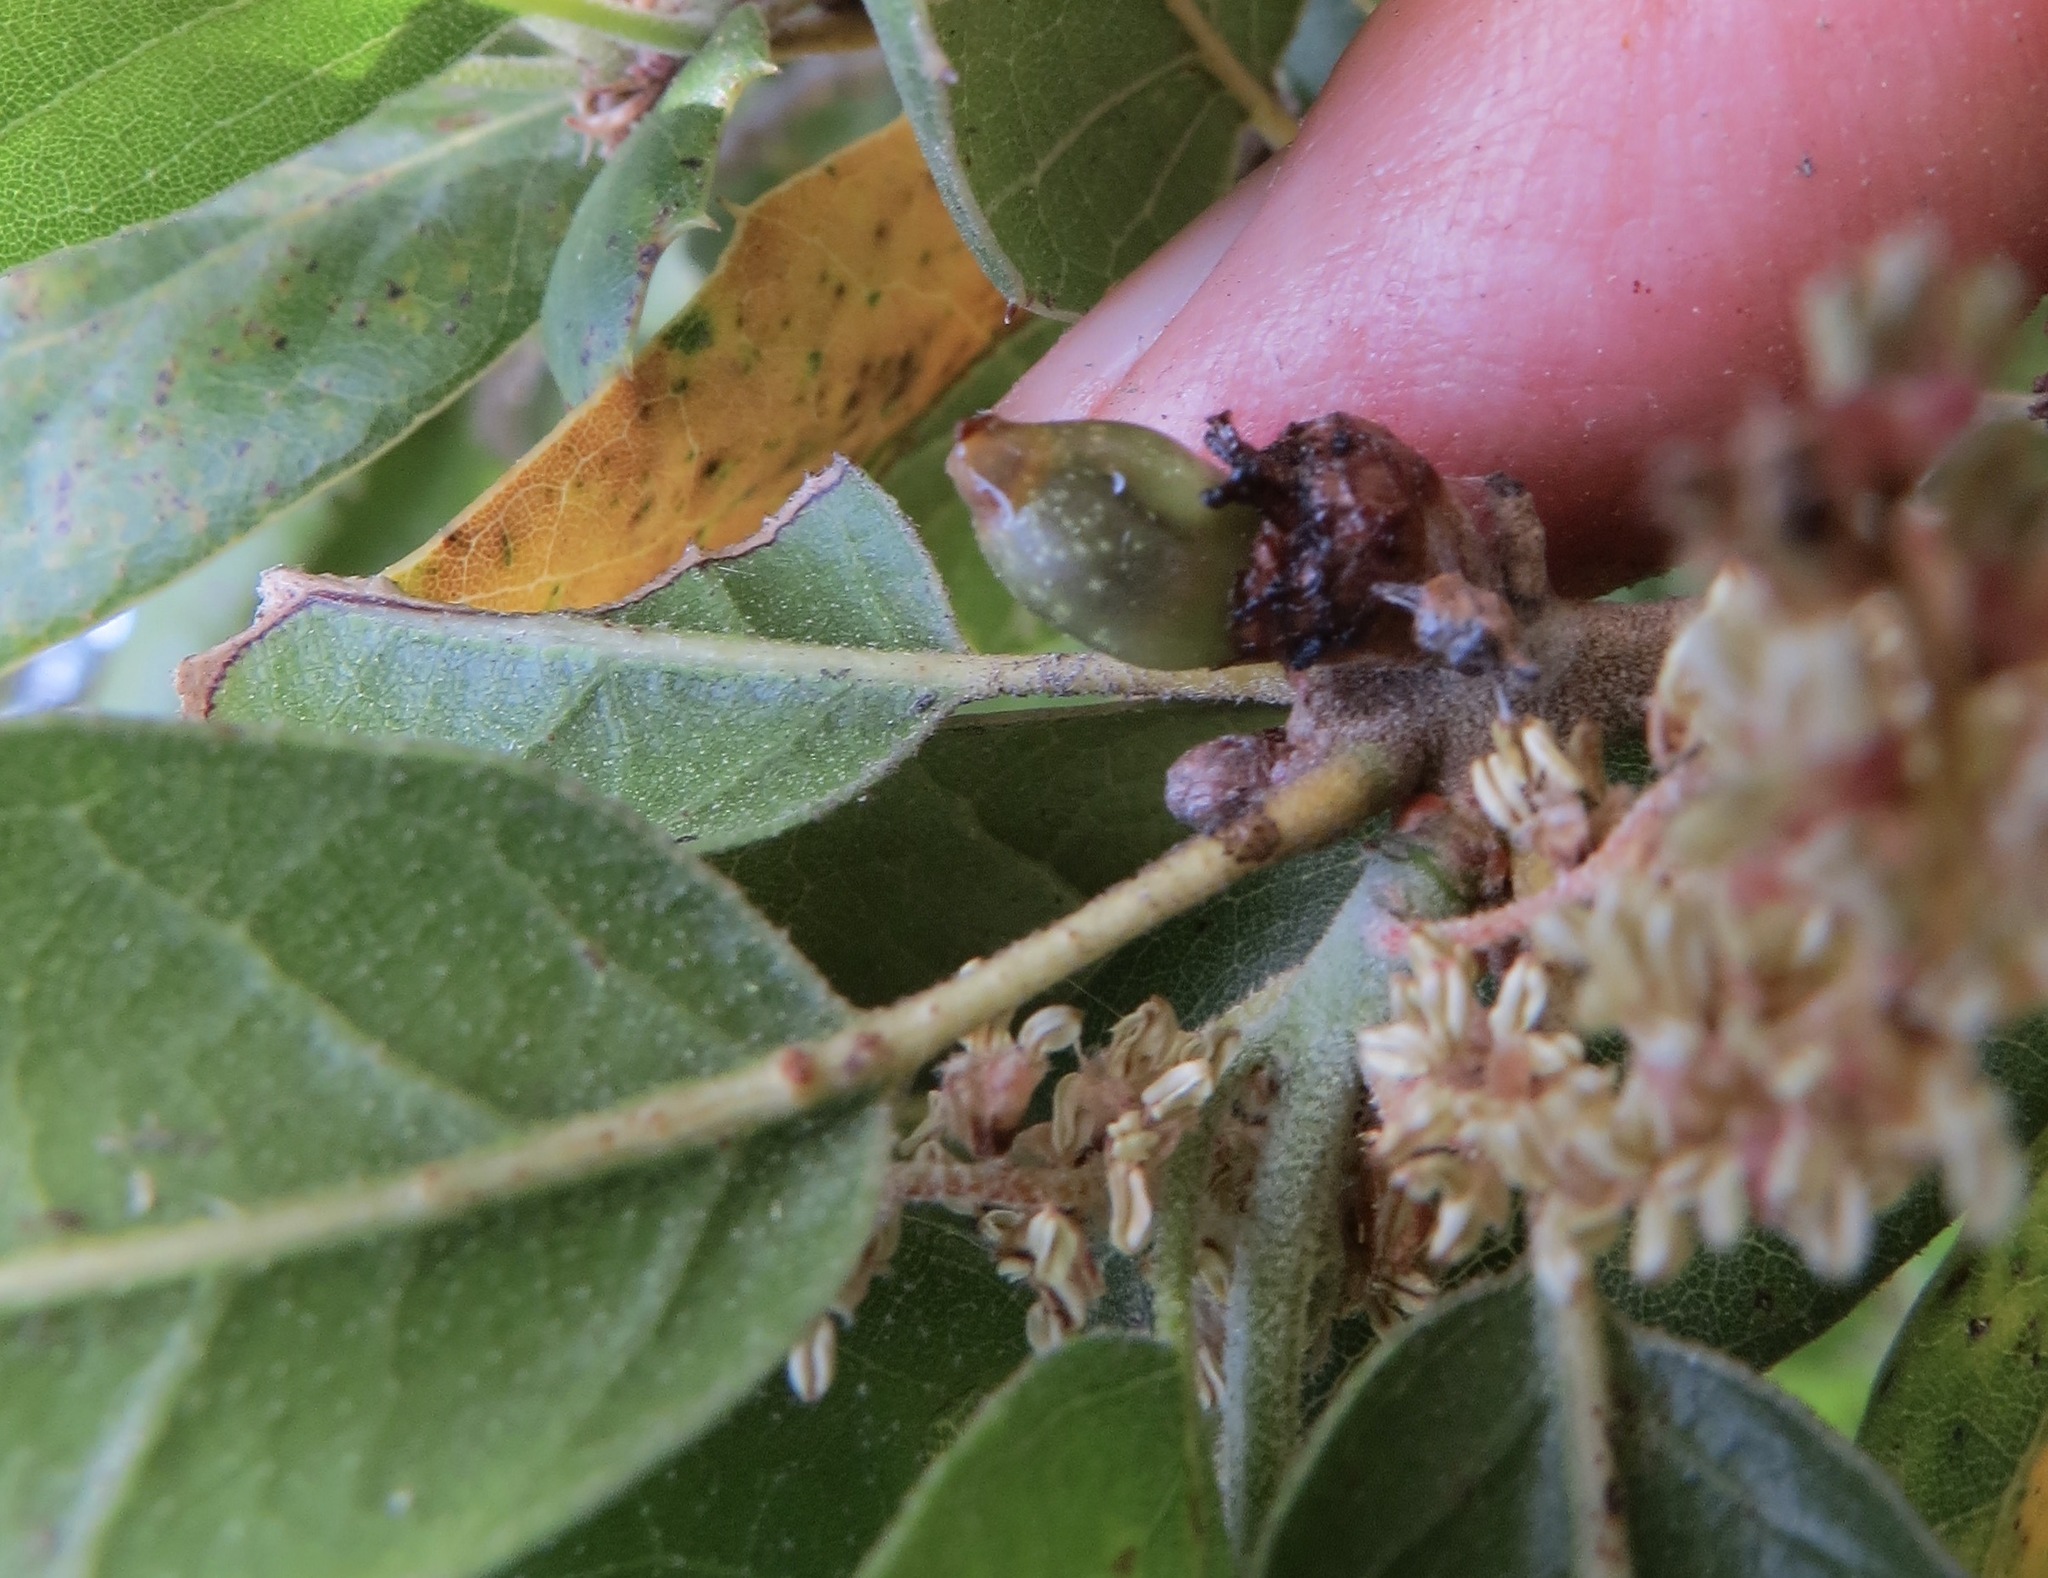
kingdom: Animalia
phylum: Arthropoda
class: Insecta
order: Hymenoptera
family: Cynipidae
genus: Callirhytis
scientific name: Callirhytis
